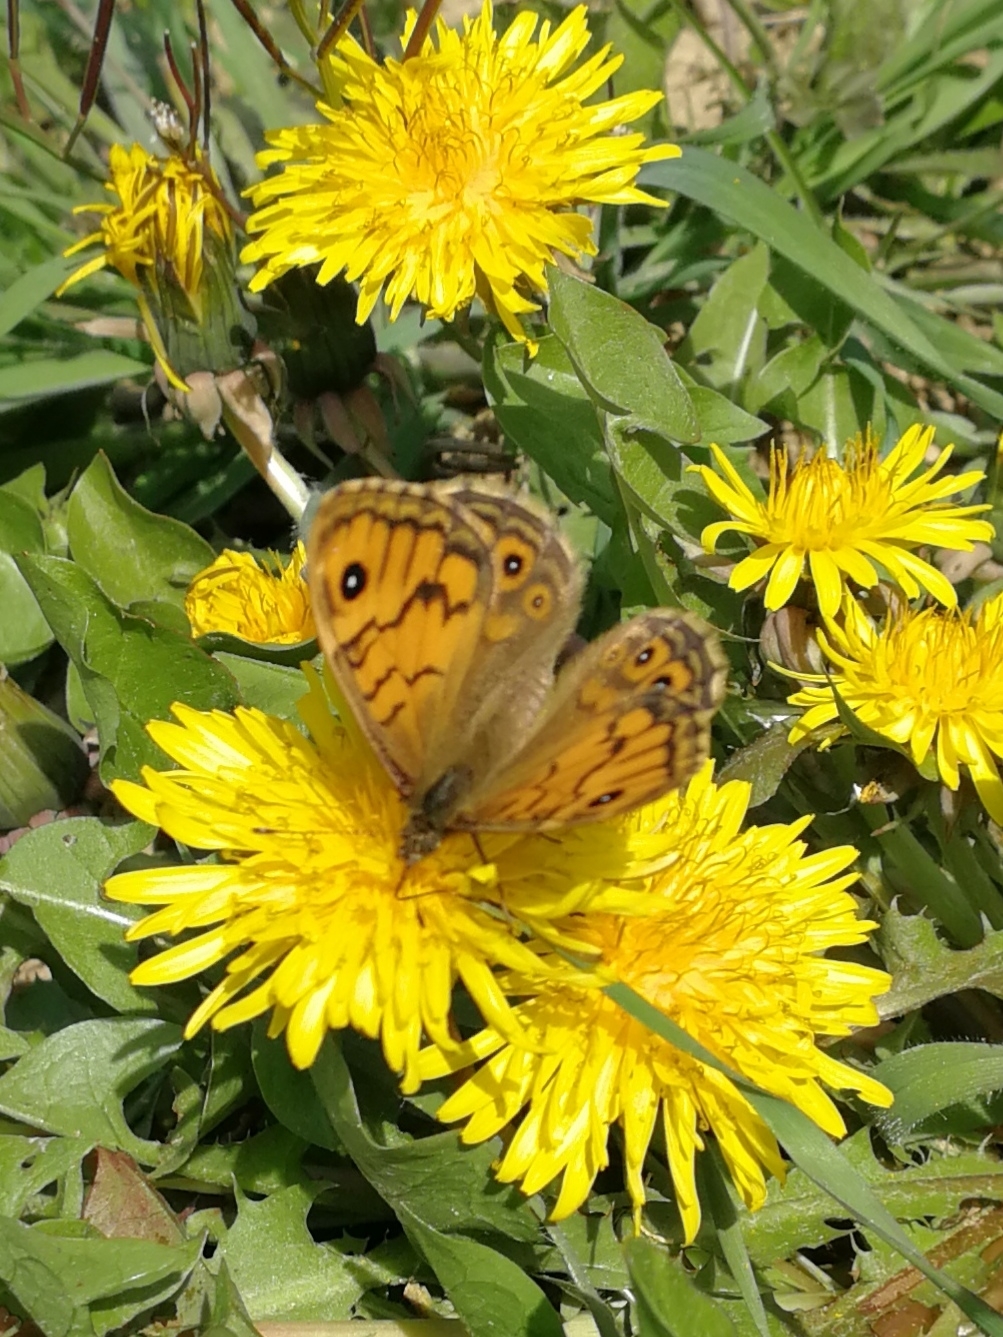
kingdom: Animalia
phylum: Arthropoda
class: Insecta
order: Lepidoptera
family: Nymphalidae
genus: Pararge
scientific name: Pararge Lasiommata megera
